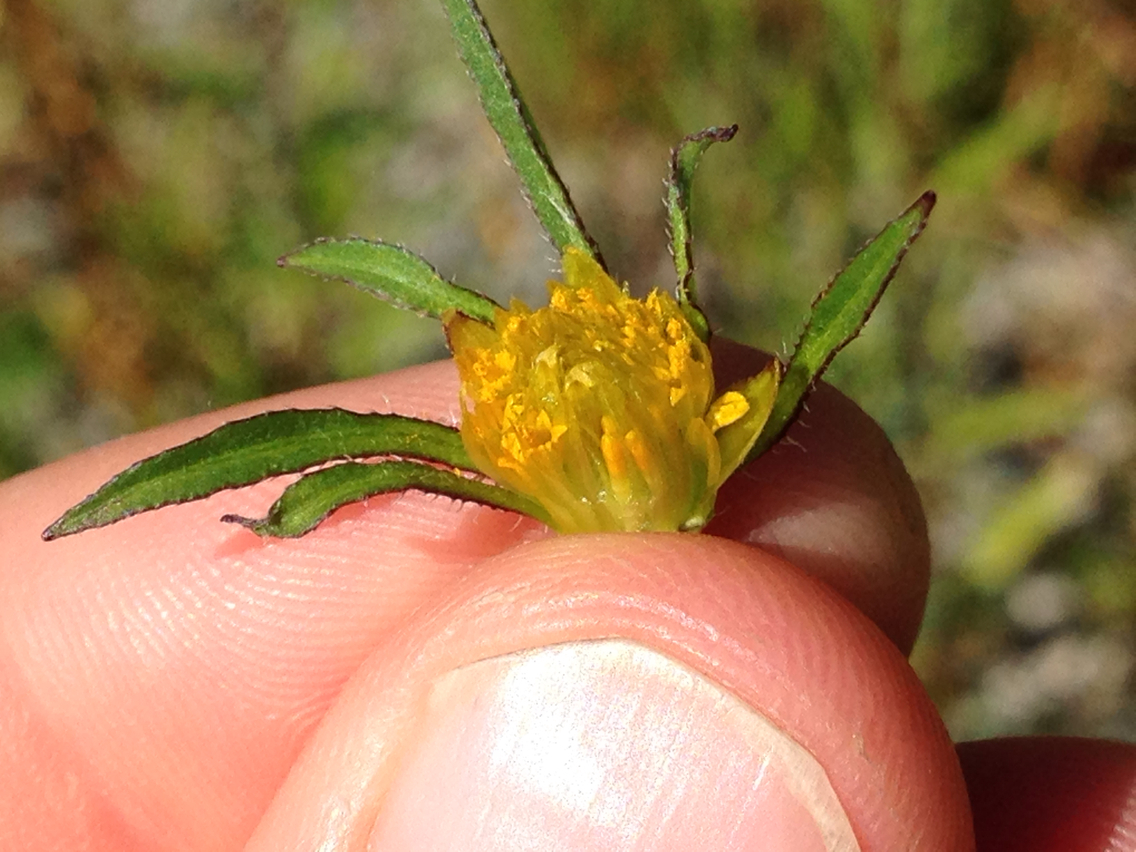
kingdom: Plantae
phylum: Tracheophyta
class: Magnoliopsida
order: Asterales
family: Asteraceae
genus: Bidens
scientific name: Bidens frondosa
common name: Beggarticks
